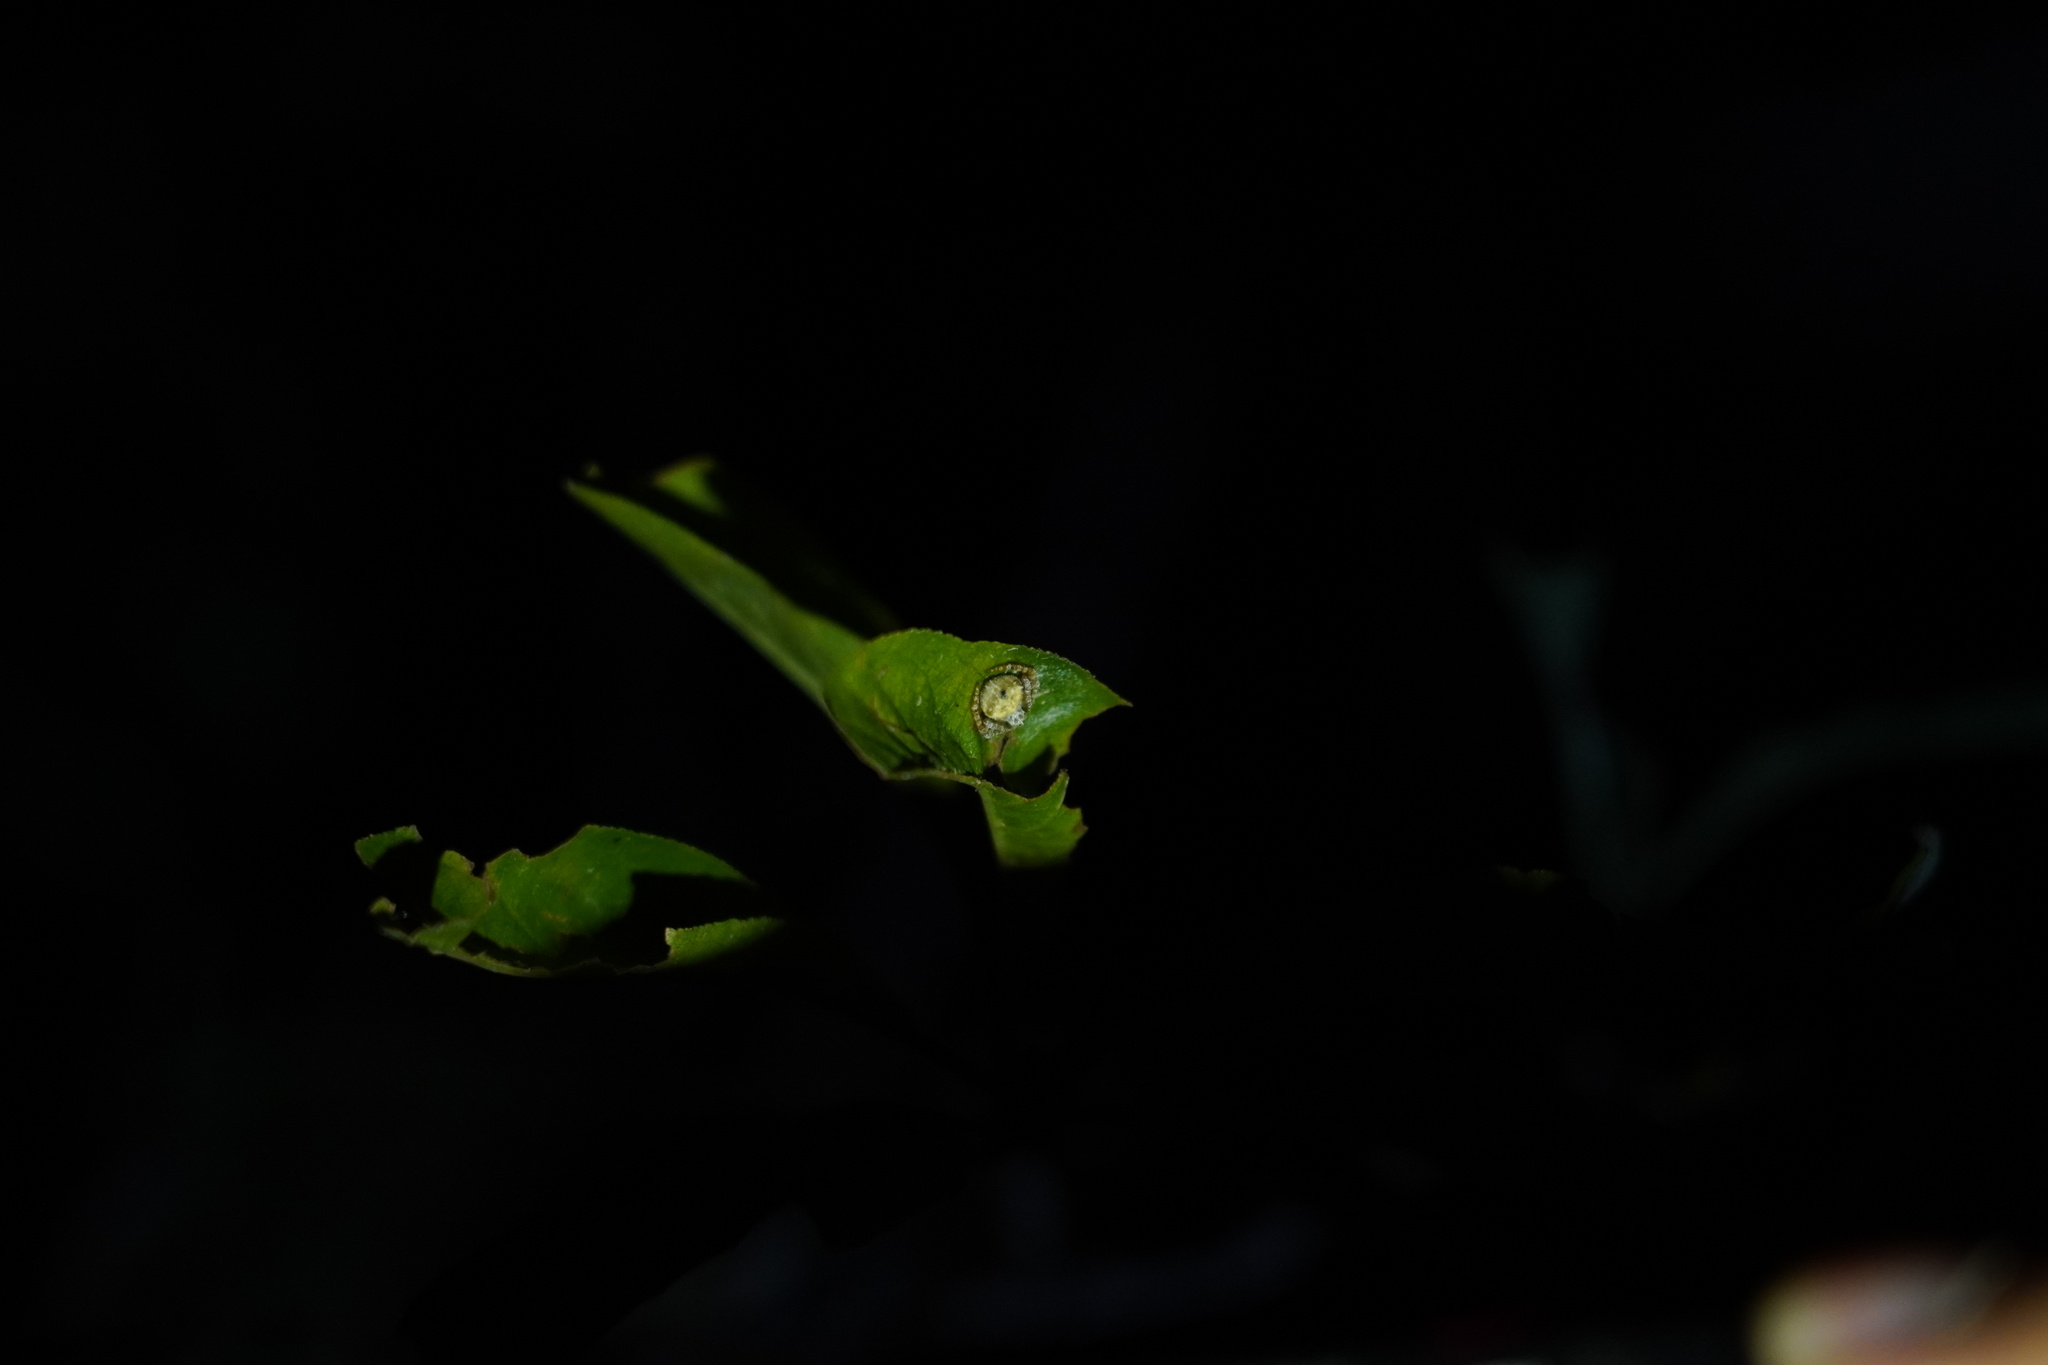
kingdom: Animalia
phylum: Arthropoda
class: Arachnida
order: Araneae
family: Araneidae
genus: Eriovixia
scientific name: Eriovixia laglaizei
